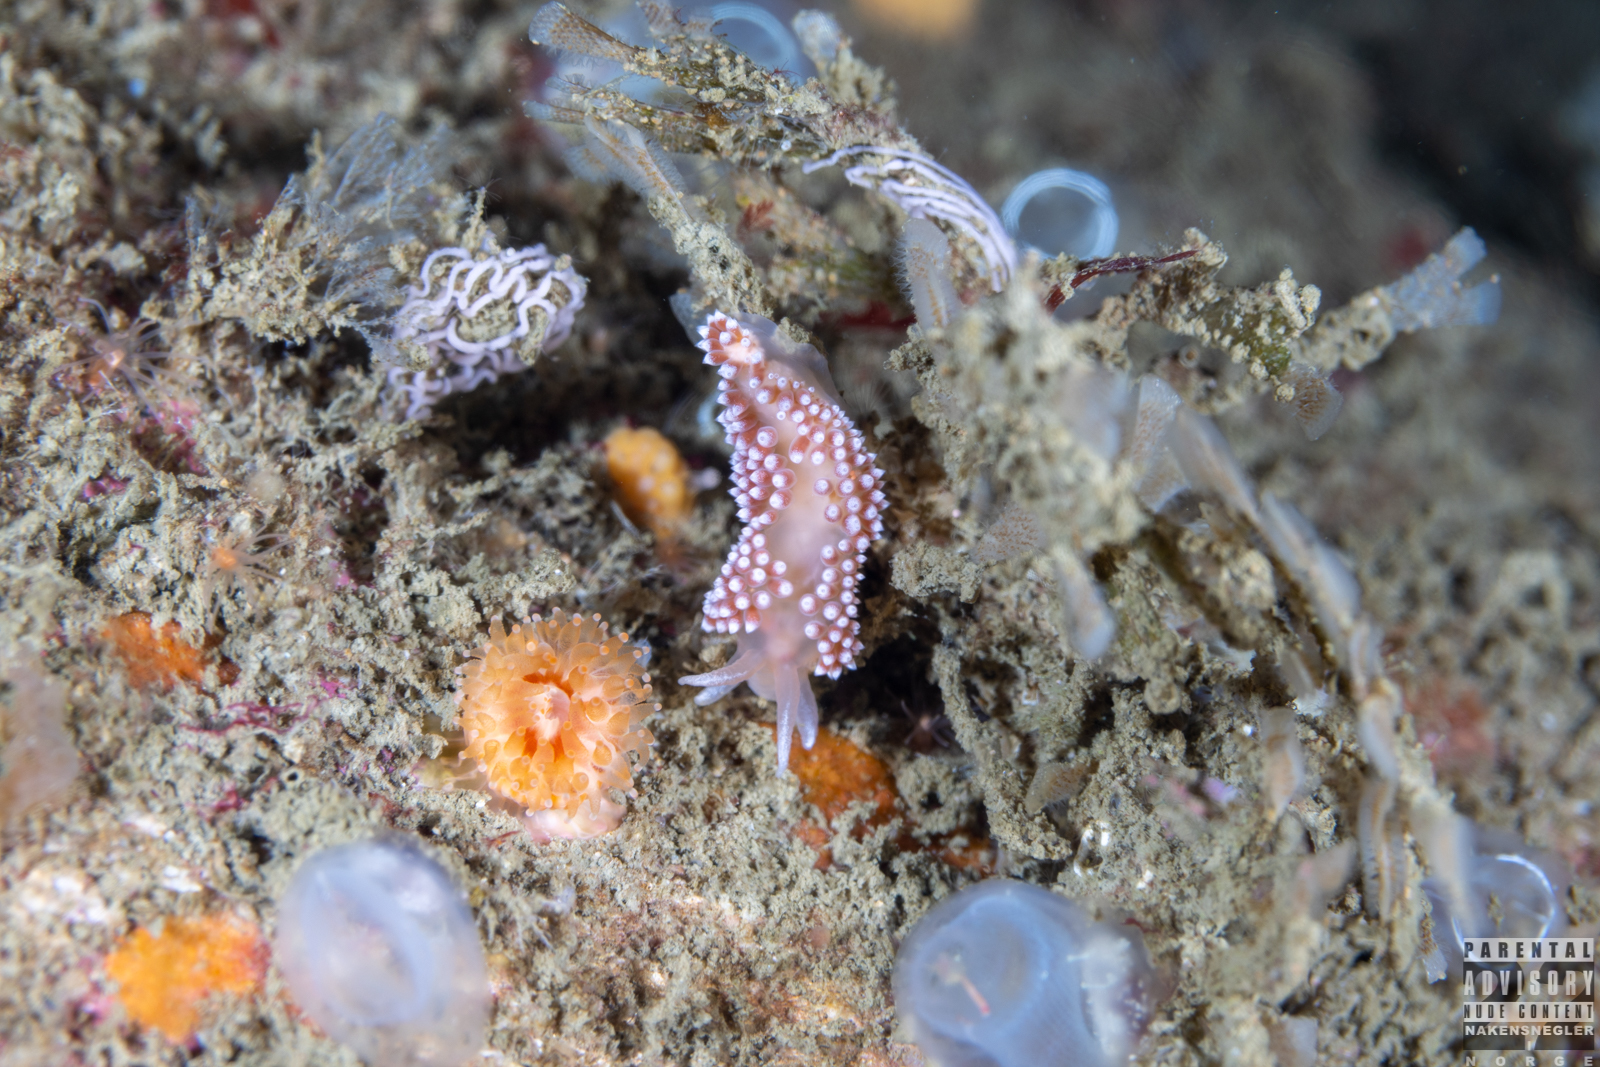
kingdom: Animalia
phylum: Mollusca
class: Gastropoda
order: Nudibranchia
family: Coryphellidae
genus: Coryphella
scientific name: Coryphella verrucosa
